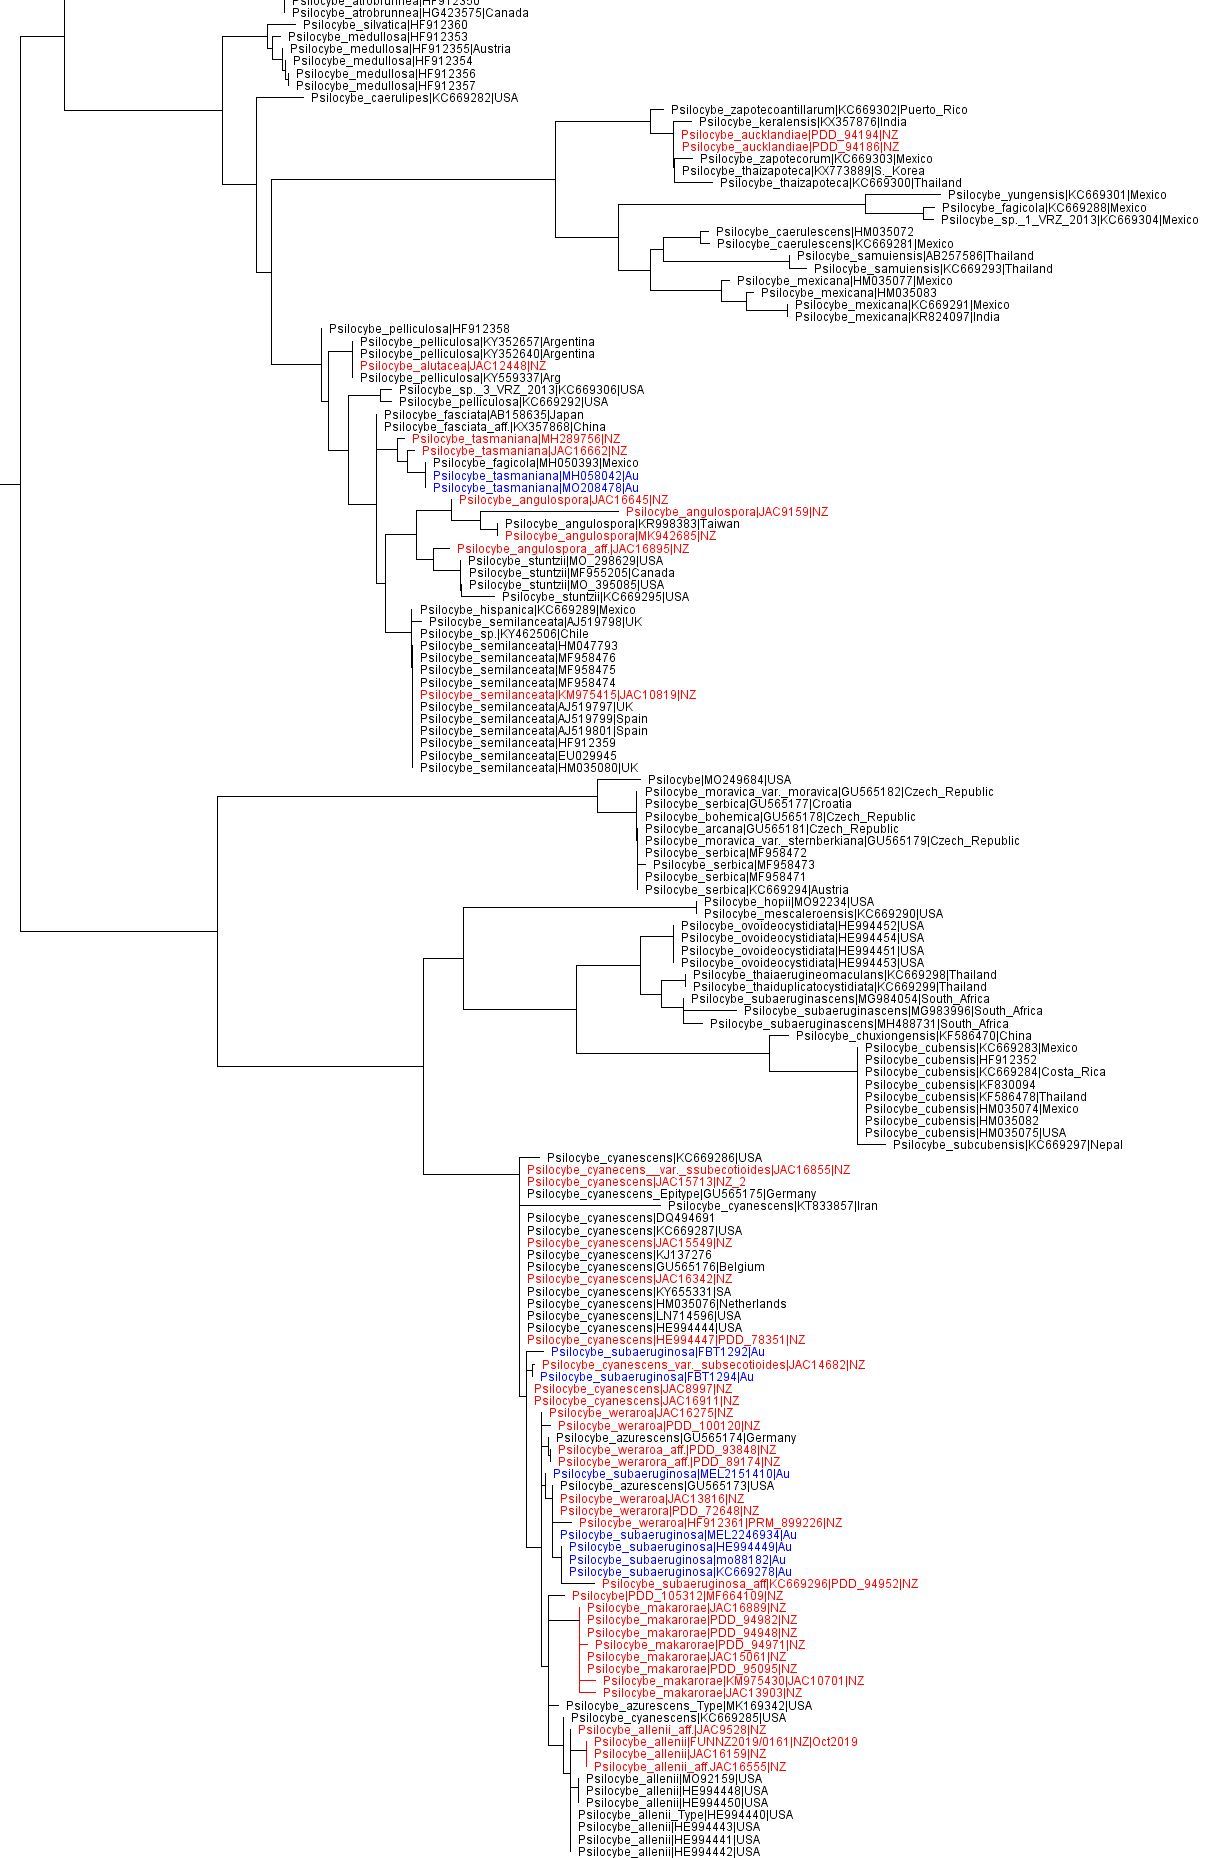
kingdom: Fungi
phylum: Basidiomycota
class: Agaricomycetes
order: Agaricales
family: Hymenogastraceae
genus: Psilocybe
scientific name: Psilocybe semilanceata
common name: Liberty cap
